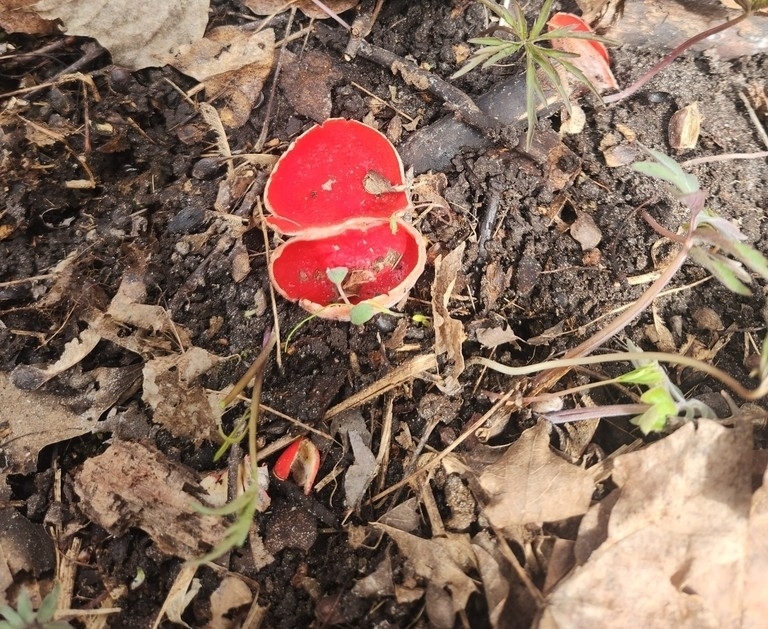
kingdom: Fungi
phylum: Ascomycota
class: Pezizomycetes
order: Pezizales
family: Sarcoscyphaceae
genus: Sarcoscypha
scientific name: Sarcoscypha austriaca
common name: Scarlet elfcup
